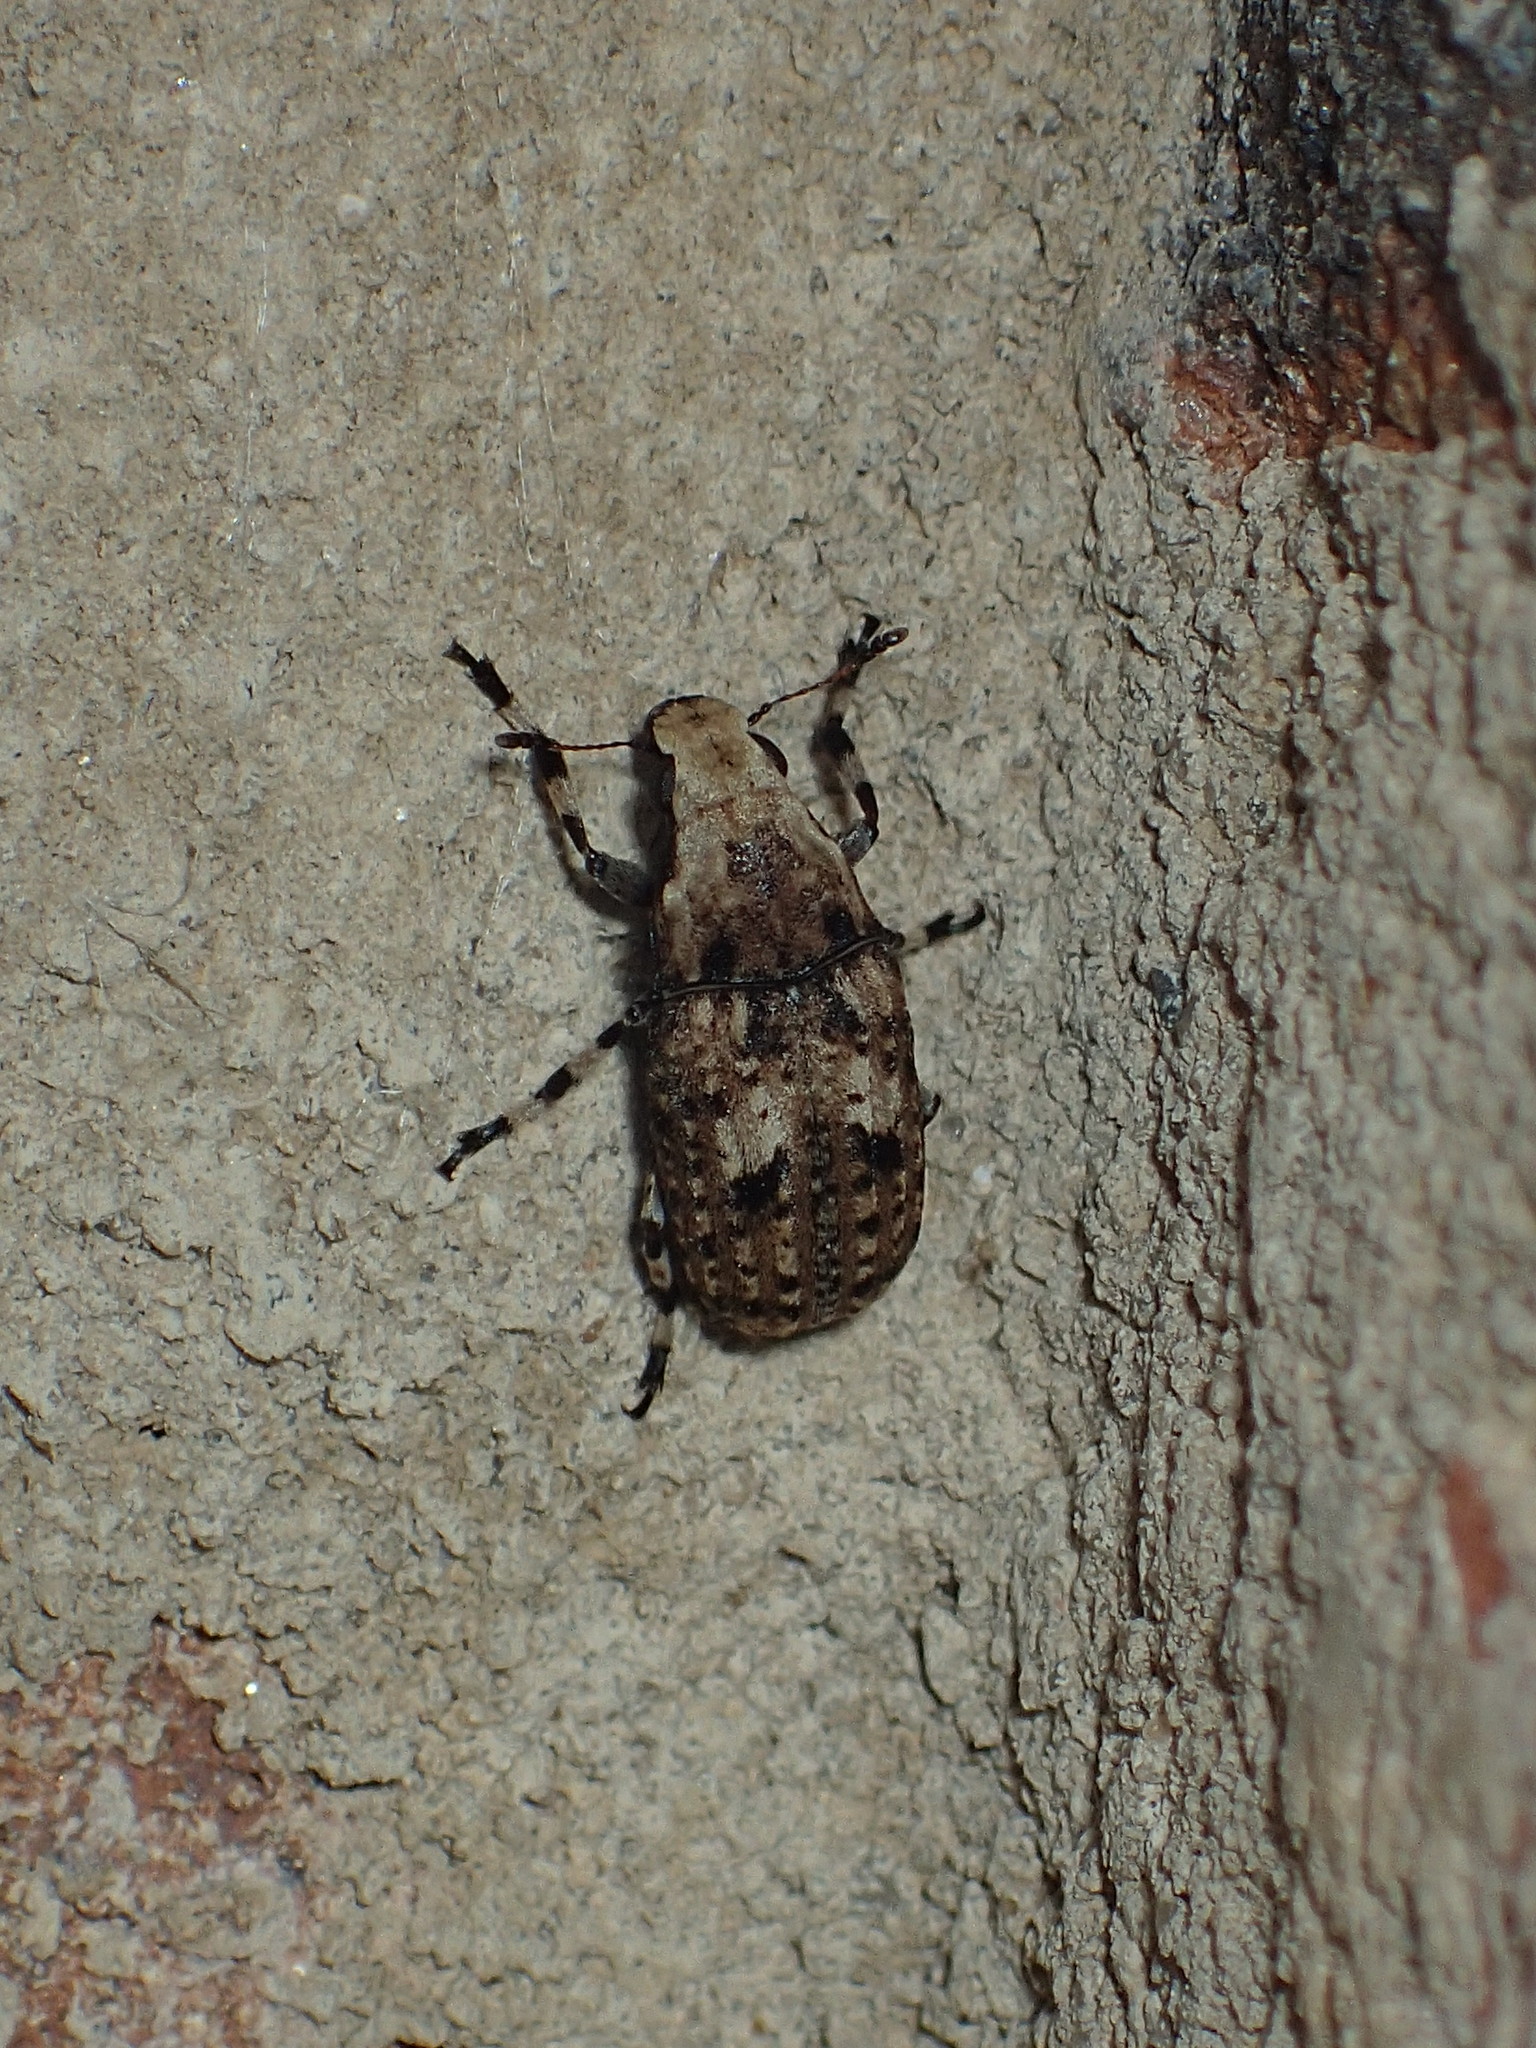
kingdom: Animalia
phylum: Arthropoda
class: Insecta
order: Coleoptera
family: Anthribidae
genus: Euparius
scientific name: Euparius marmoreus
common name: Marbled fungus weevil
